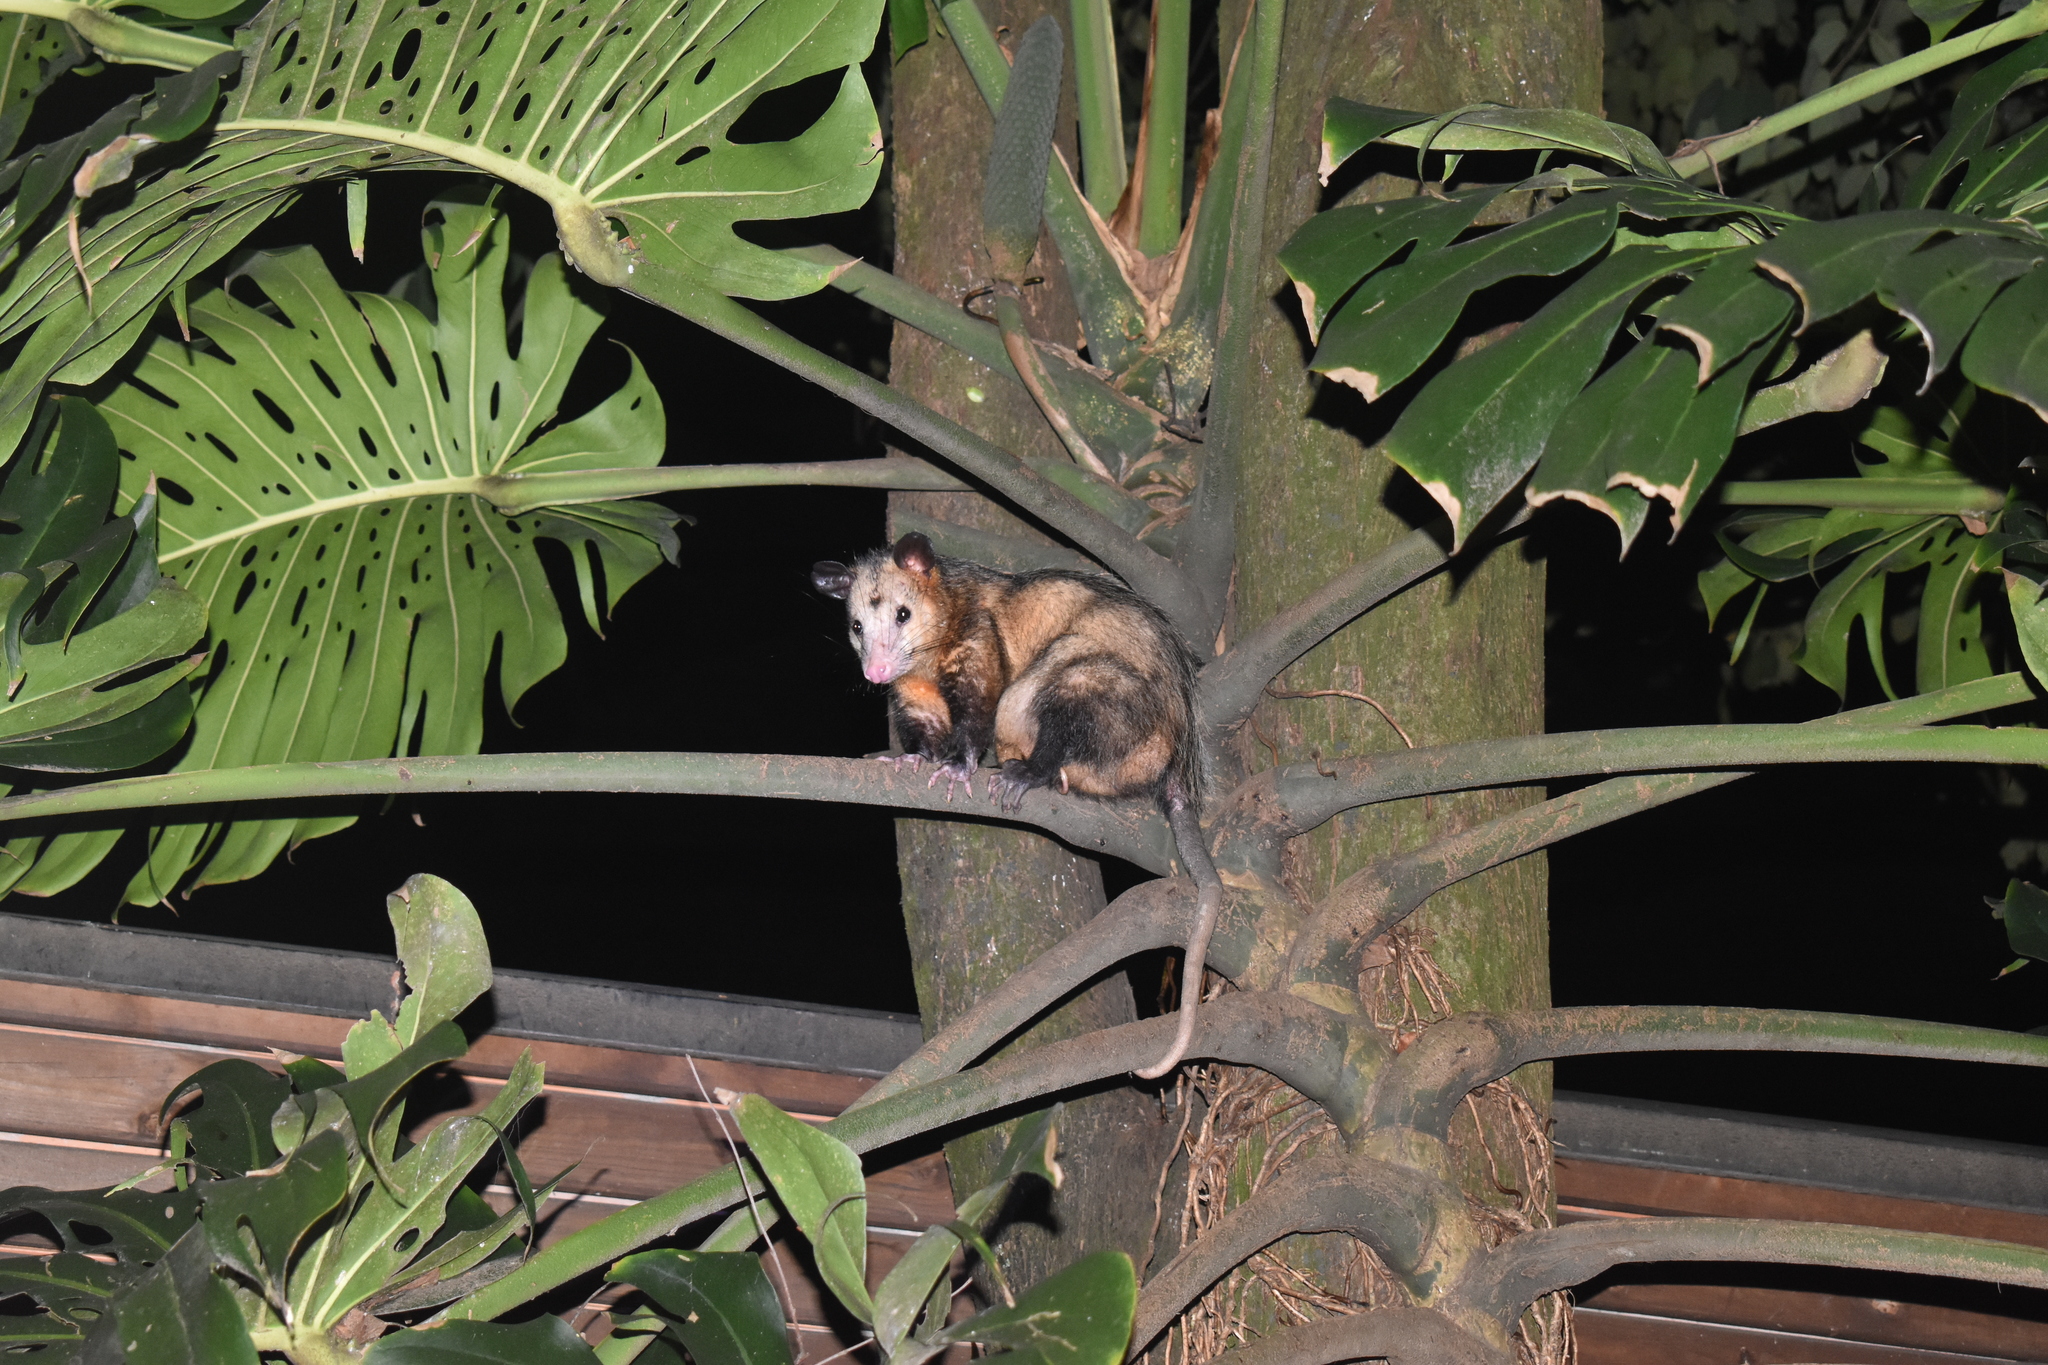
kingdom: Animalia
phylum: Chordata
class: Mammalia
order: Didelphimorphia
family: Didelphidae
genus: Didelphis
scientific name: Didelphis marsupialis
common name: Common opossum
